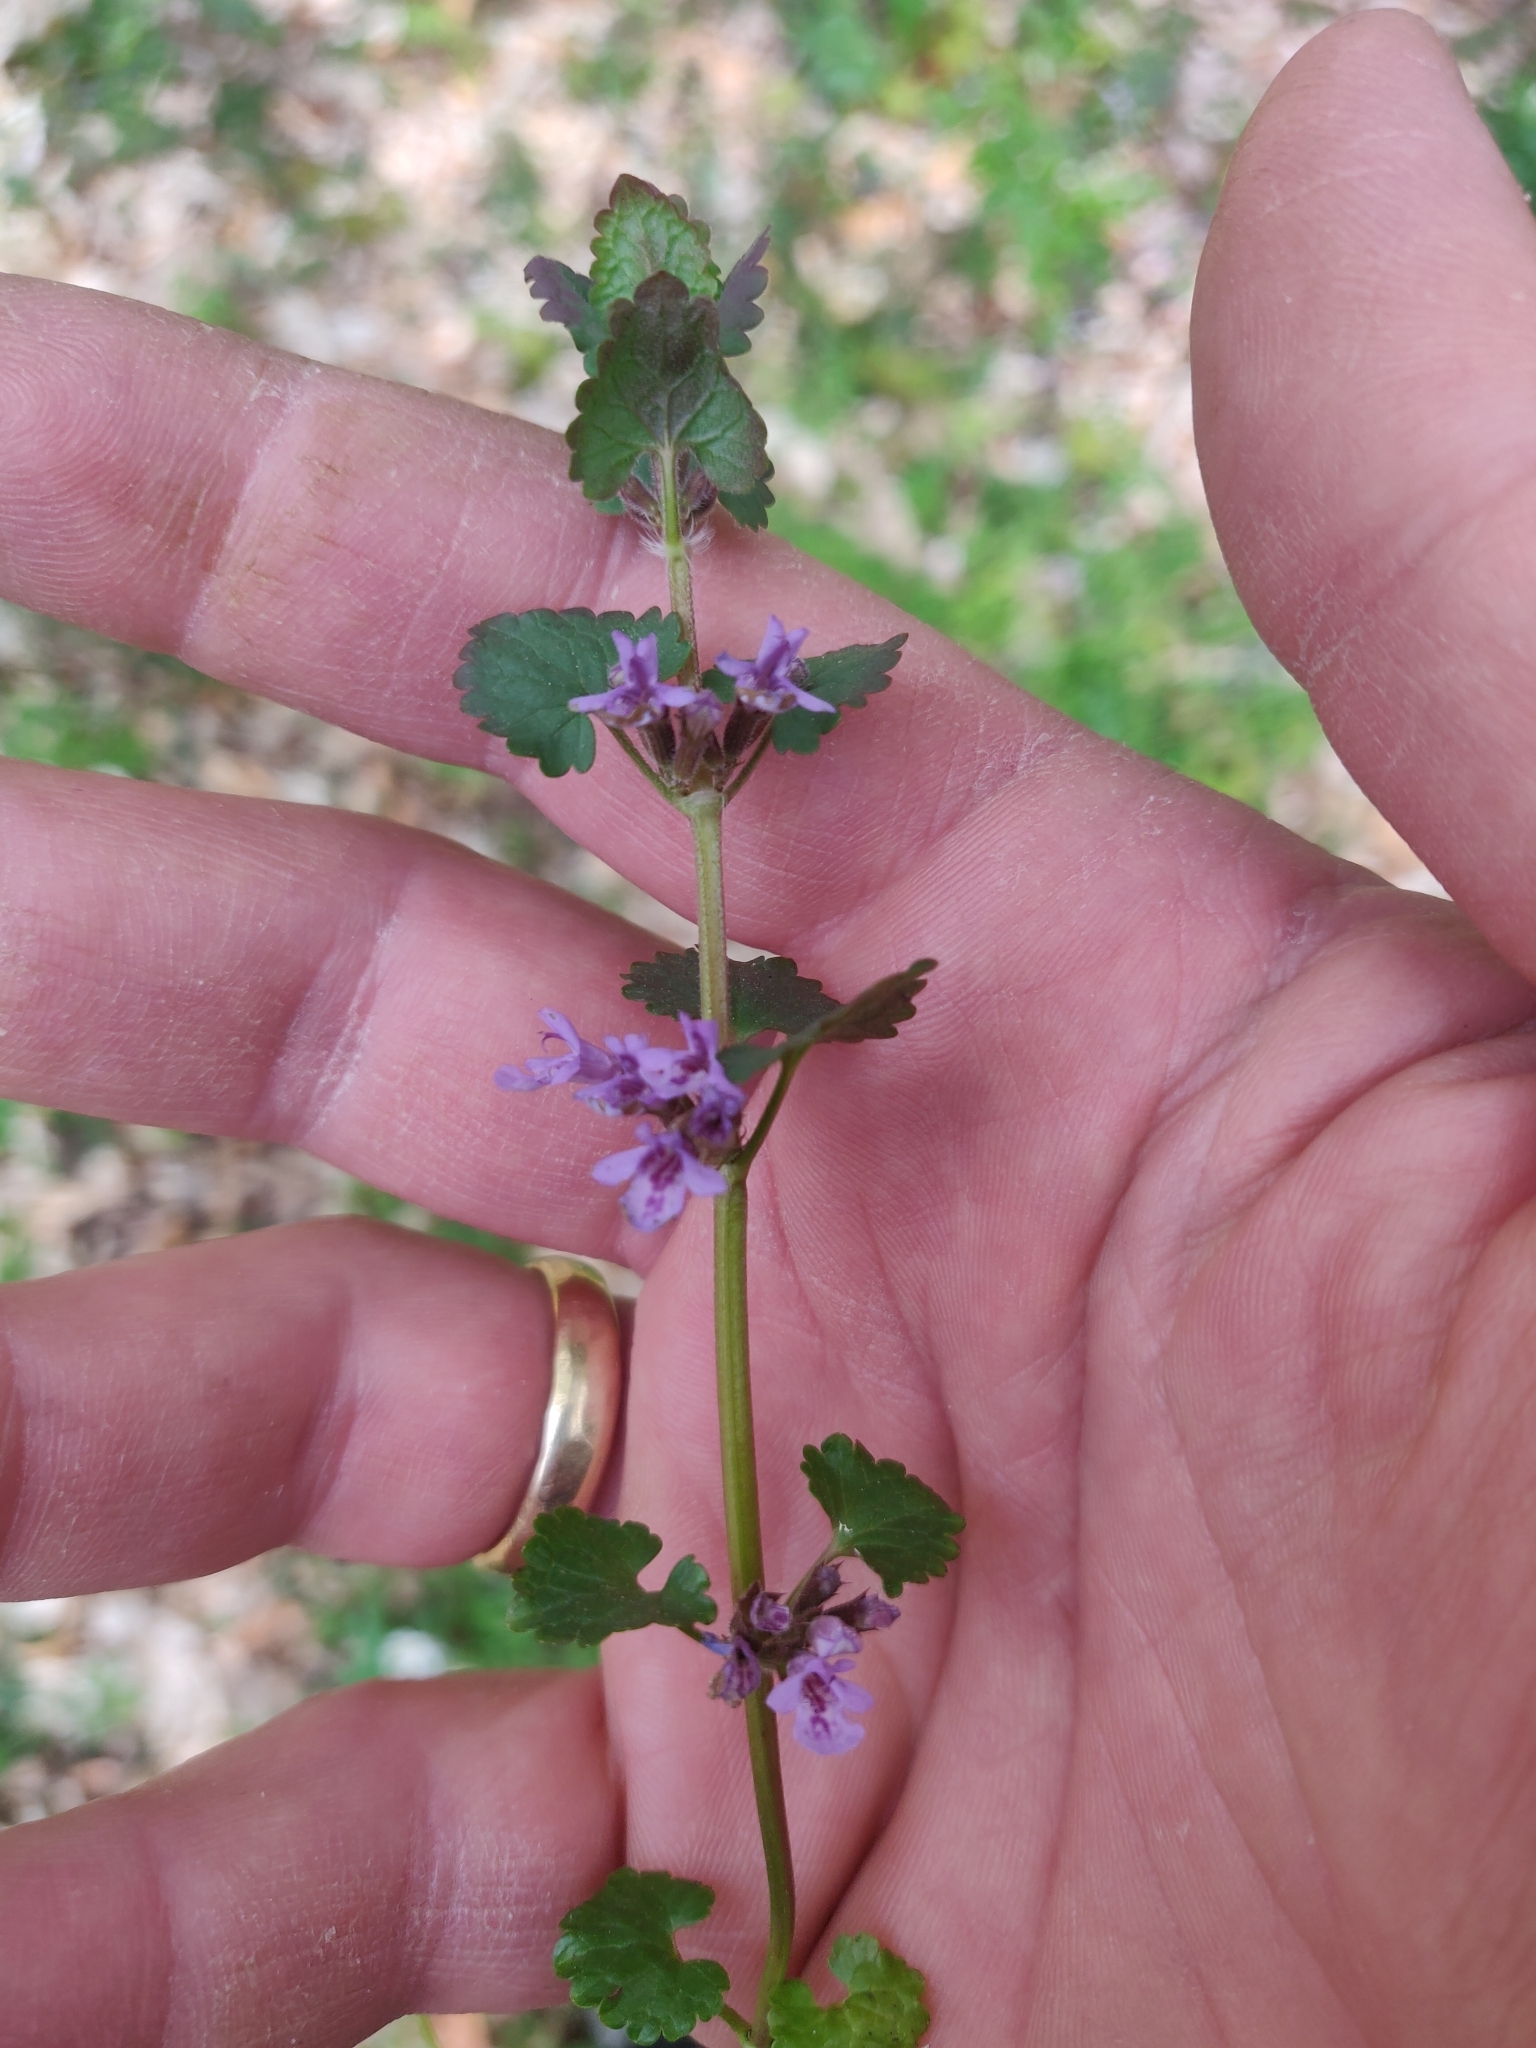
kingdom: Plantae
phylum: Tracheophyta
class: Magnoliopsida
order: Lamiales
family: Lamiaceae
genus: Glechoma
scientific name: Glechoma hederacea
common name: Ground ivy
